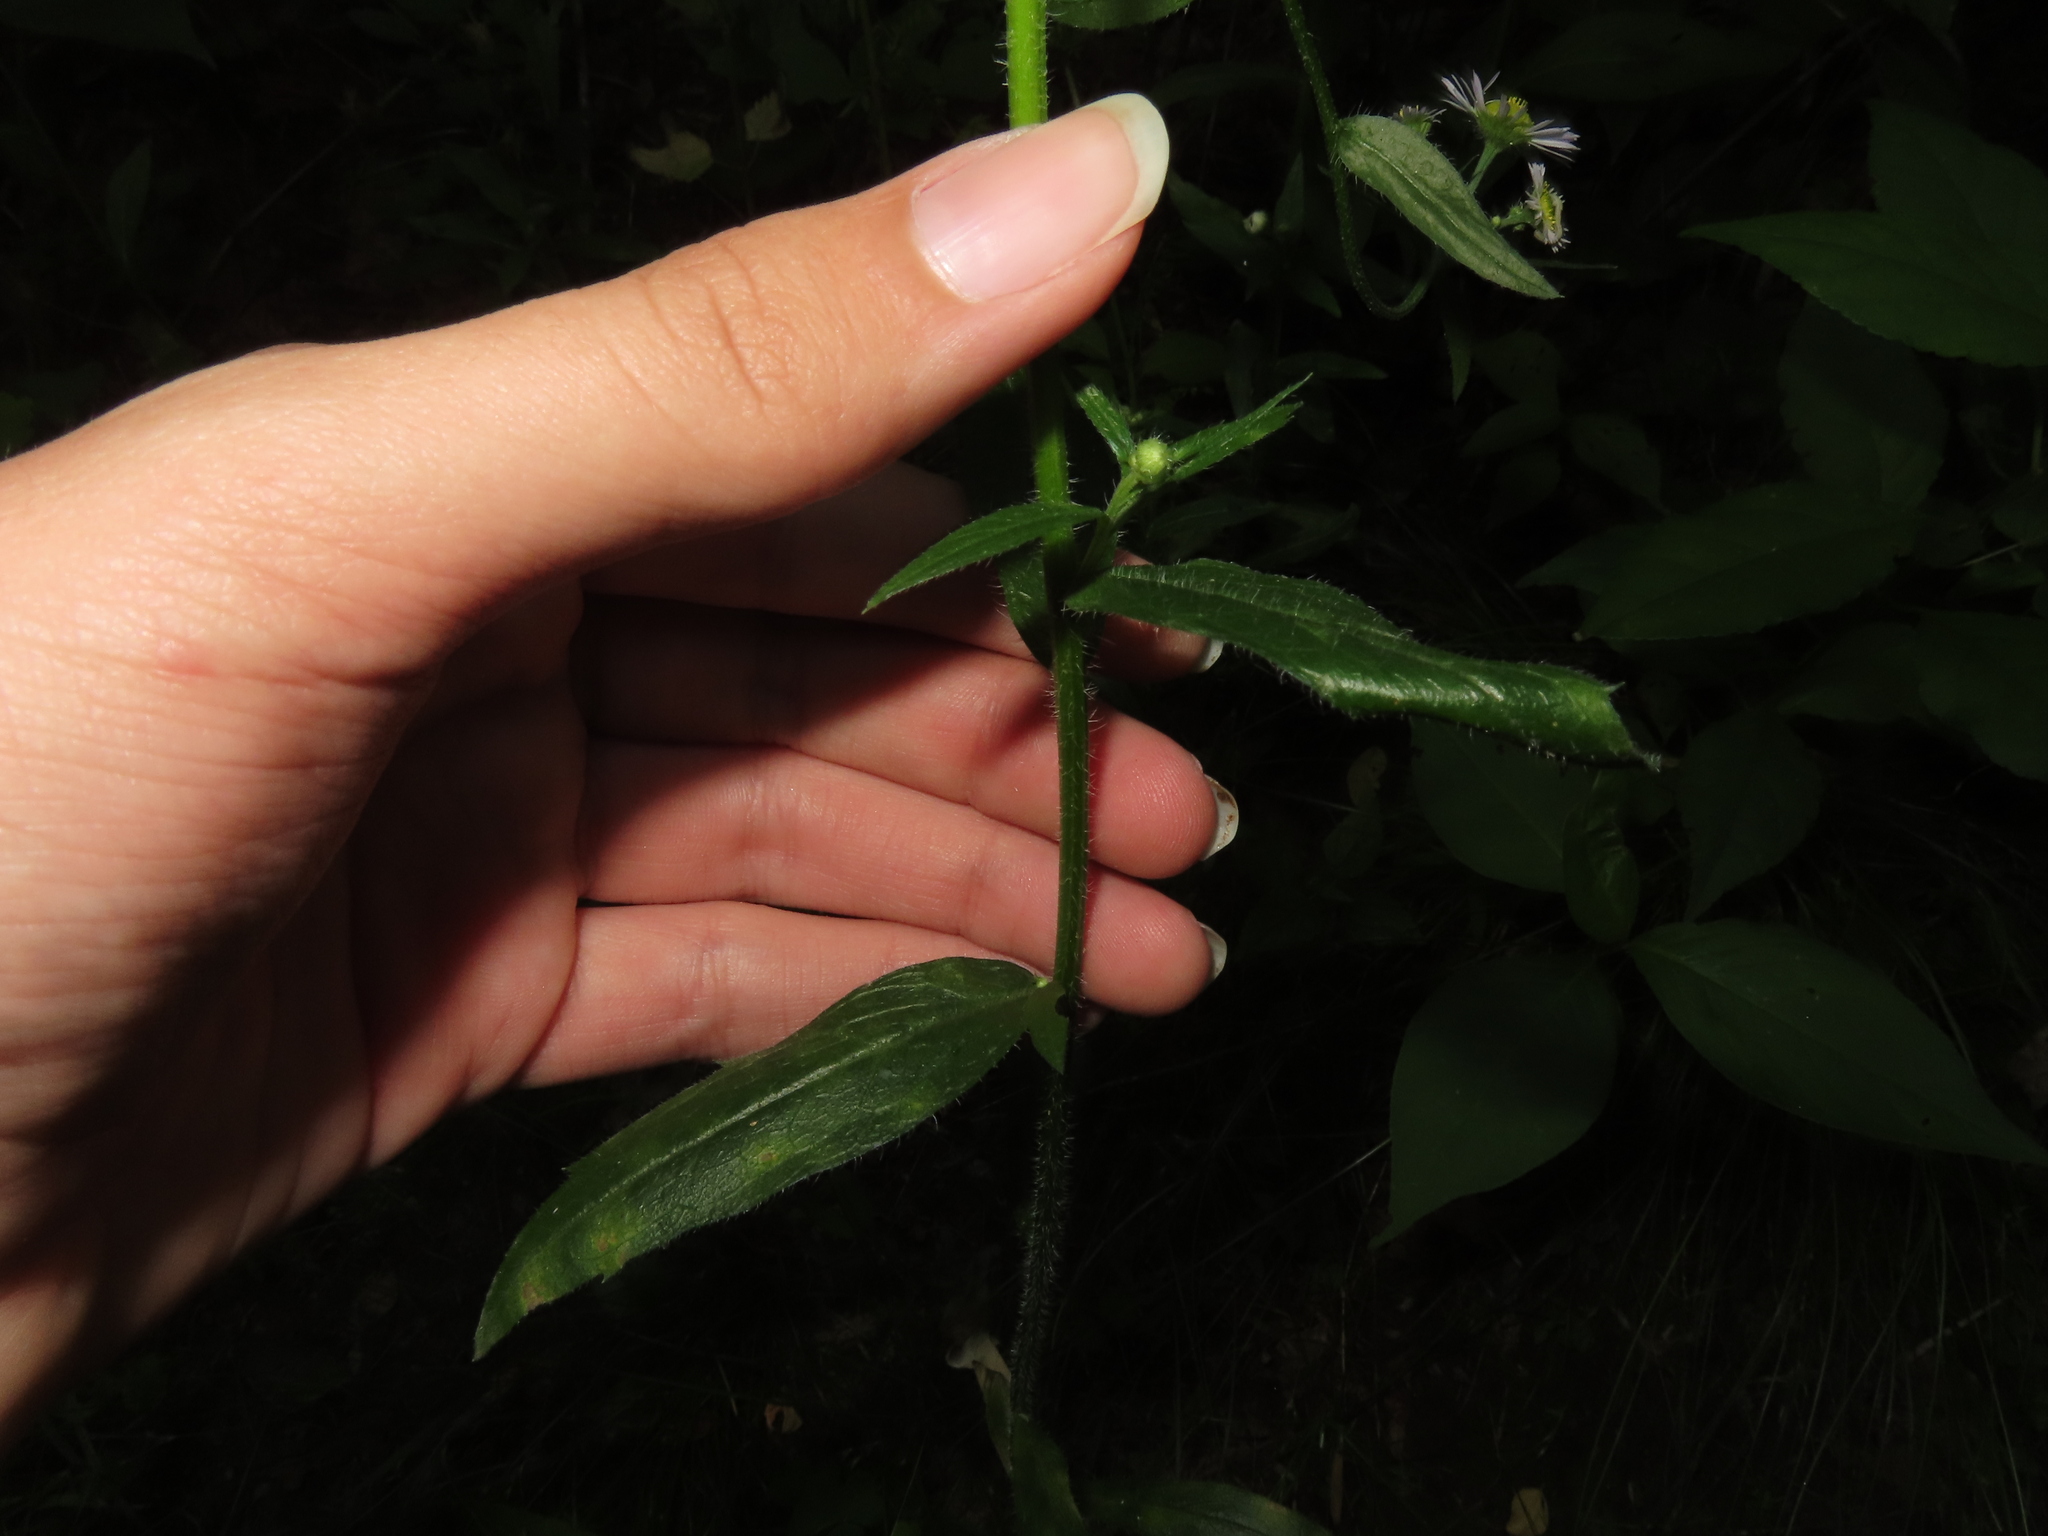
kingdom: Plantae
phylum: Tracheophyta
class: Magnoliopsida
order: Asterales
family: Asteraceae
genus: Erigeron
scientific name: Erigeron annuus
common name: Tall fleabane
